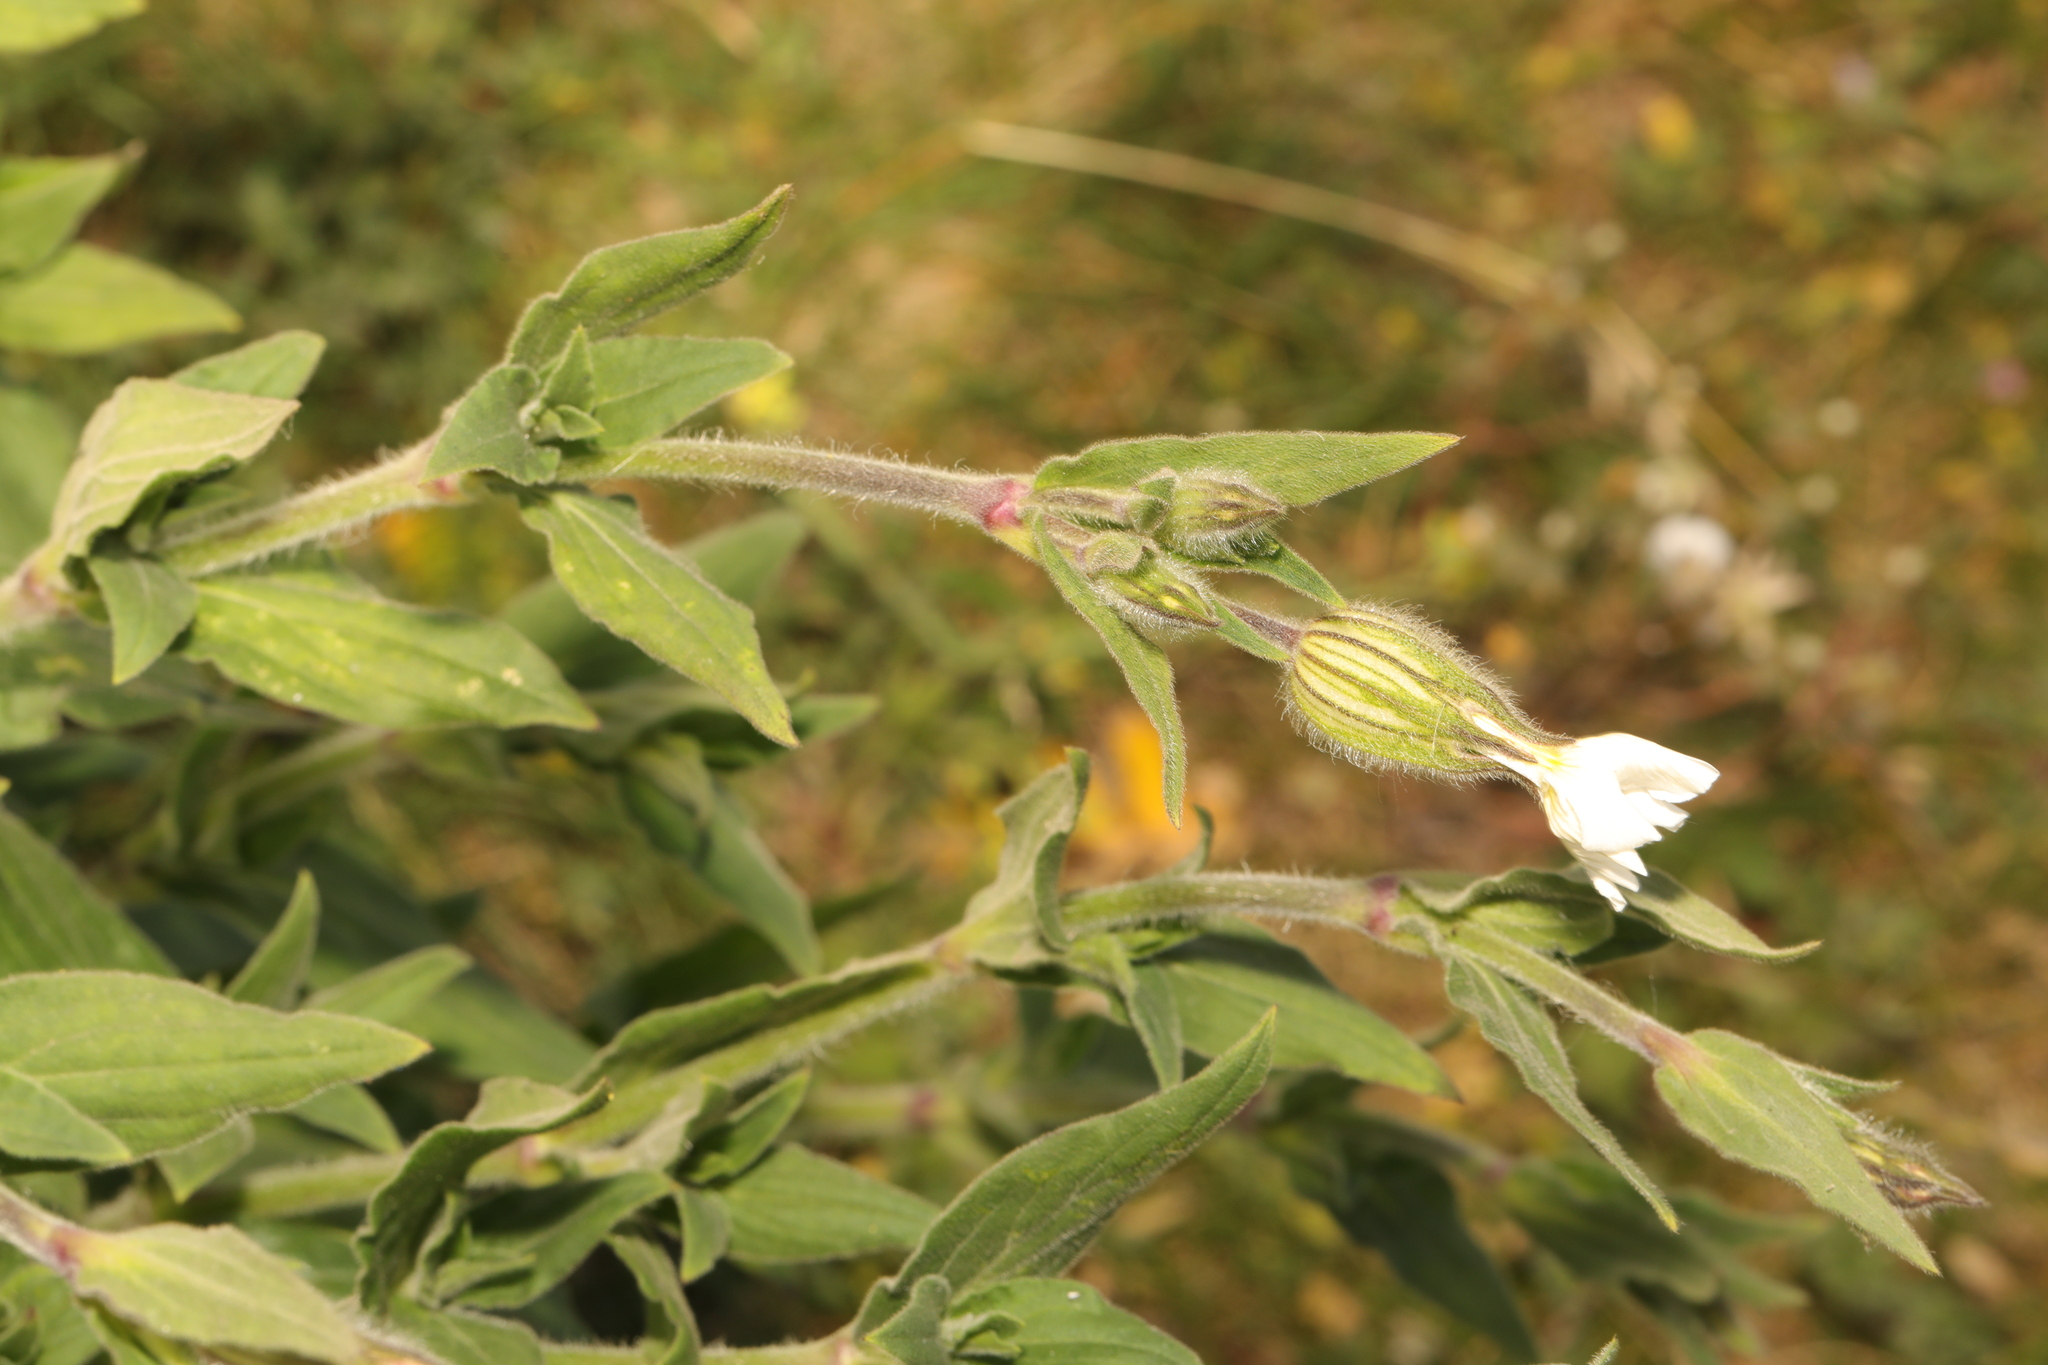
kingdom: Plantae
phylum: Tracheophyta
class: Magnoliopsida
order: Caryophyllales
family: Caryophyllaceae
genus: Silene
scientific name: Silene latifolia
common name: White campion
